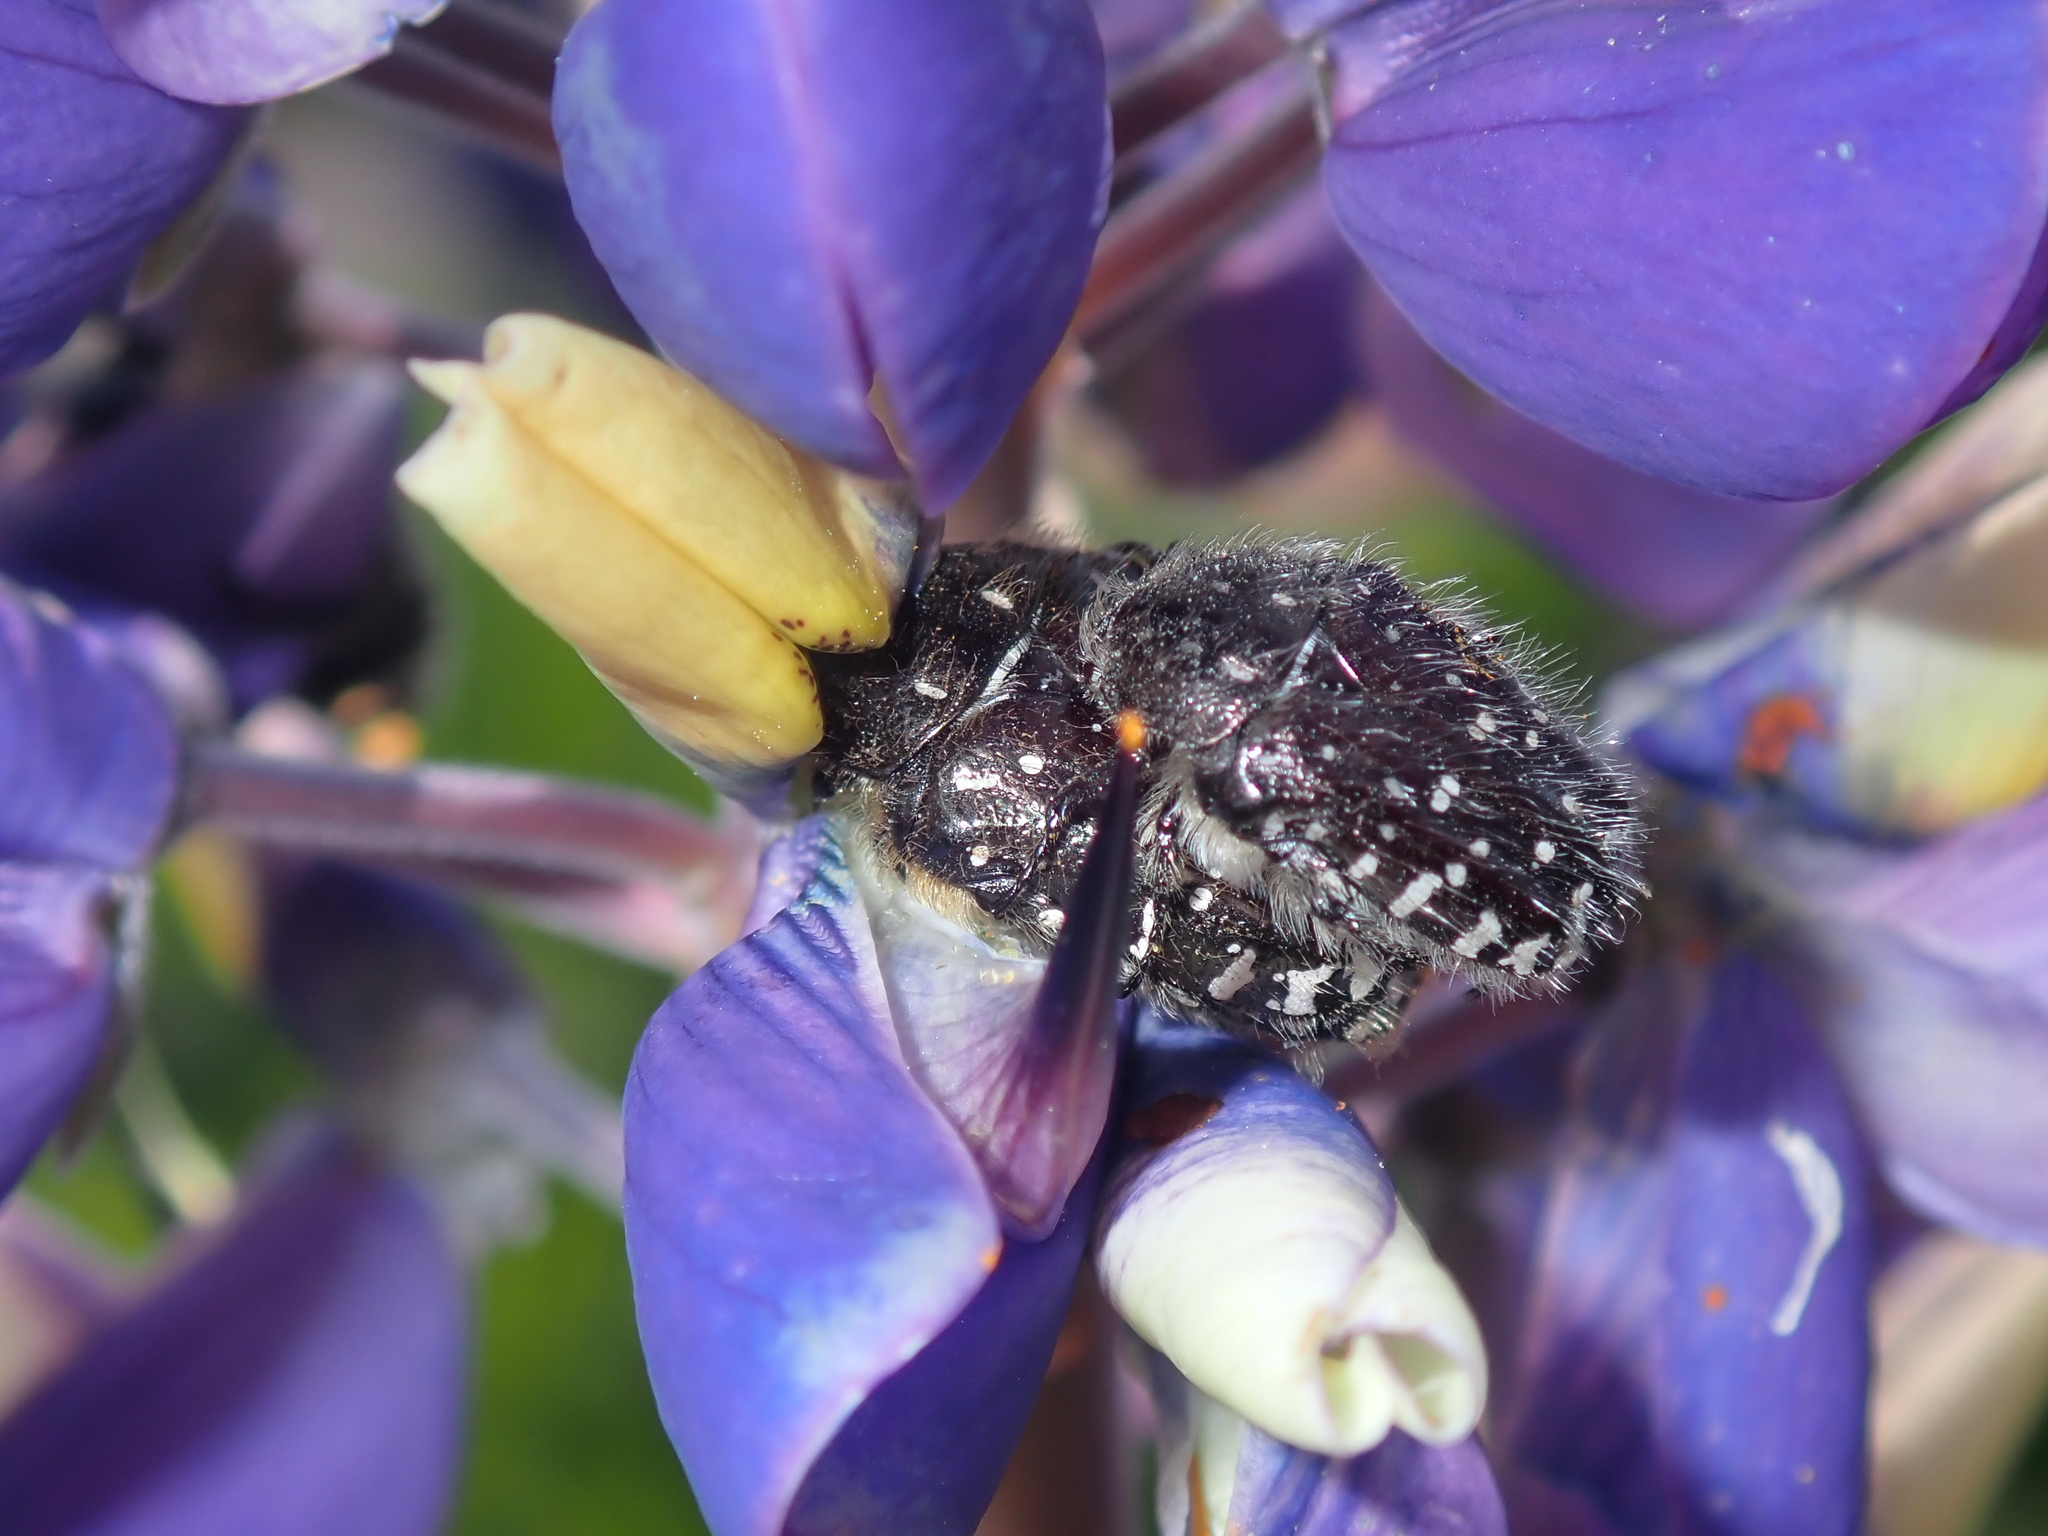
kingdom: Animalia
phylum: Arthropoda
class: Insecta
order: Coleoptera
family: Scarabaeidae
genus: Oxythyrea
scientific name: Oxythyrea funesta
